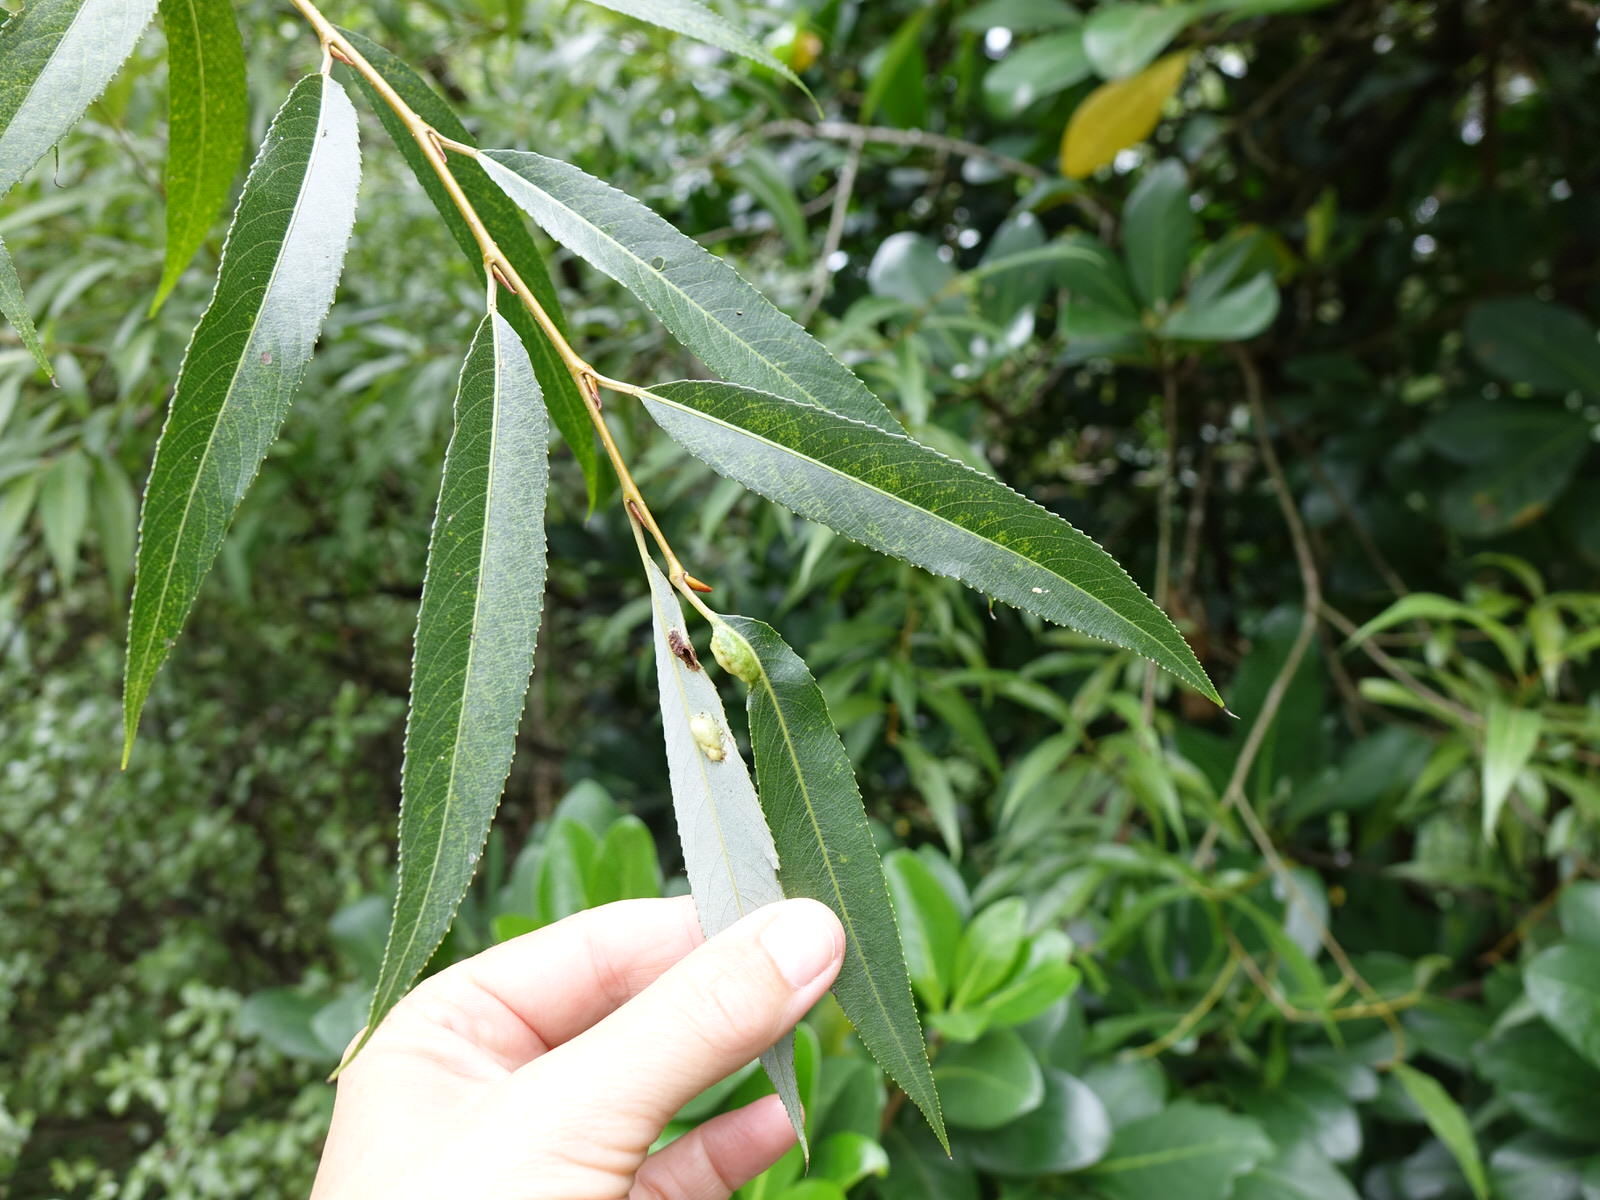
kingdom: Animalia
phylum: Arthropoda
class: Insecta
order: Hymenoptera
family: Tenthredinidae
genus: Pontania
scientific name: Pontania proxima
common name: Common sawfly
